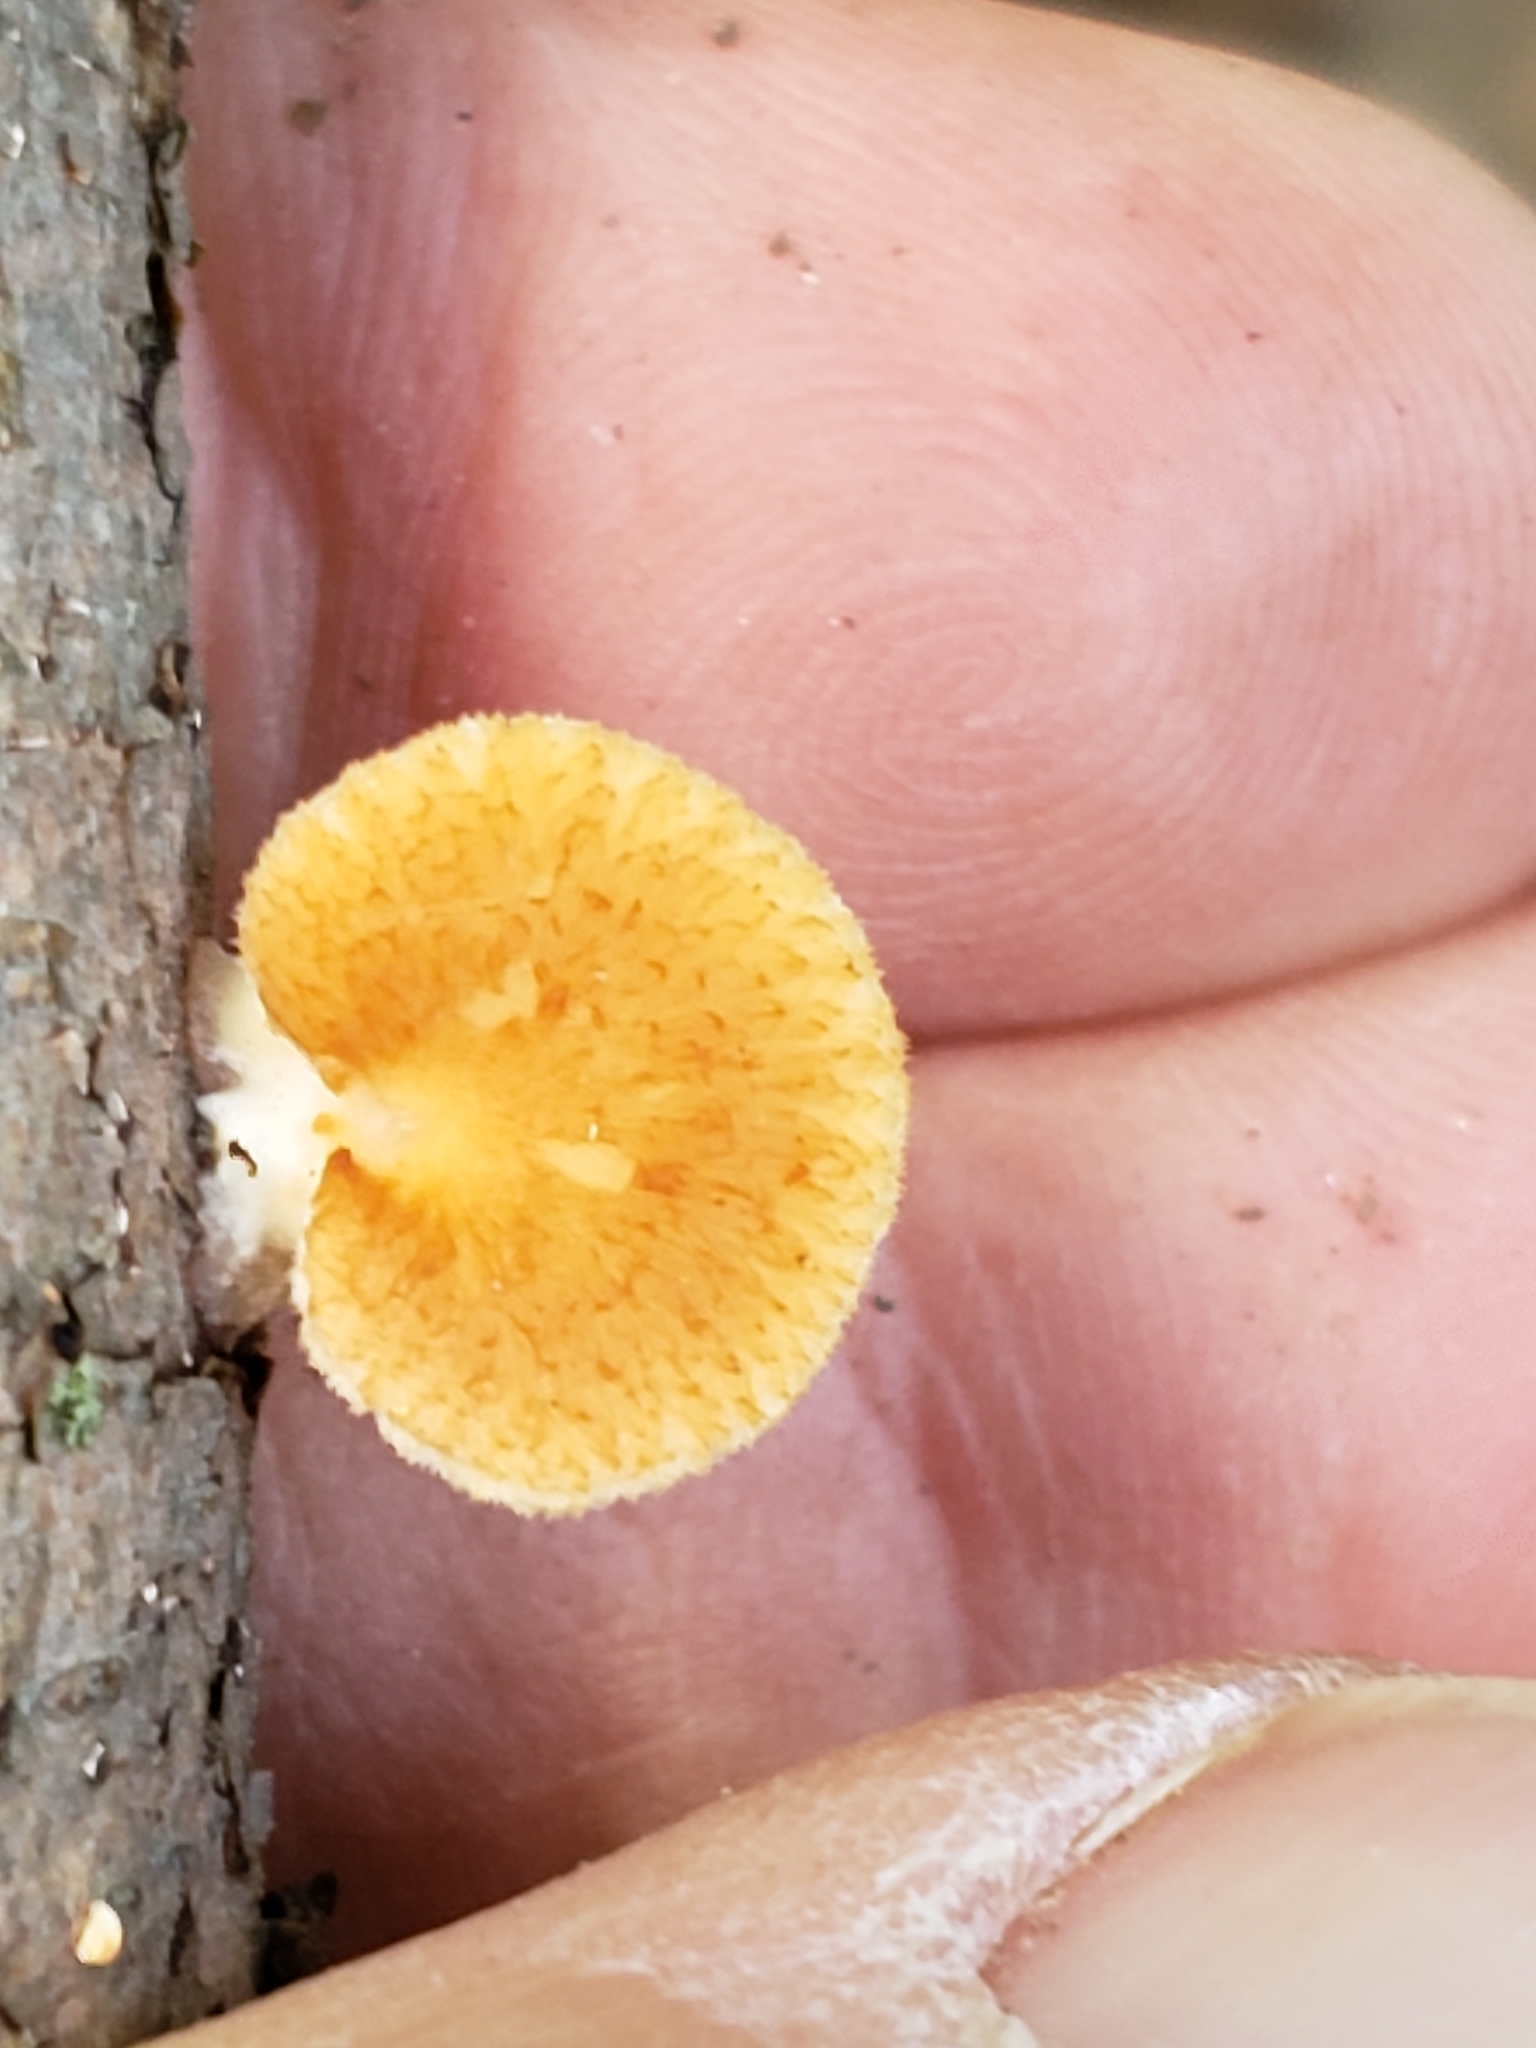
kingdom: Fungi
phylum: Basidiomycota
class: Agaricomycetes
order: Polyporales
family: Polyporaceae
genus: Neofavolus
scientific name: Neofavolus alveolaris
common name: Hexagonal-pored polypore
